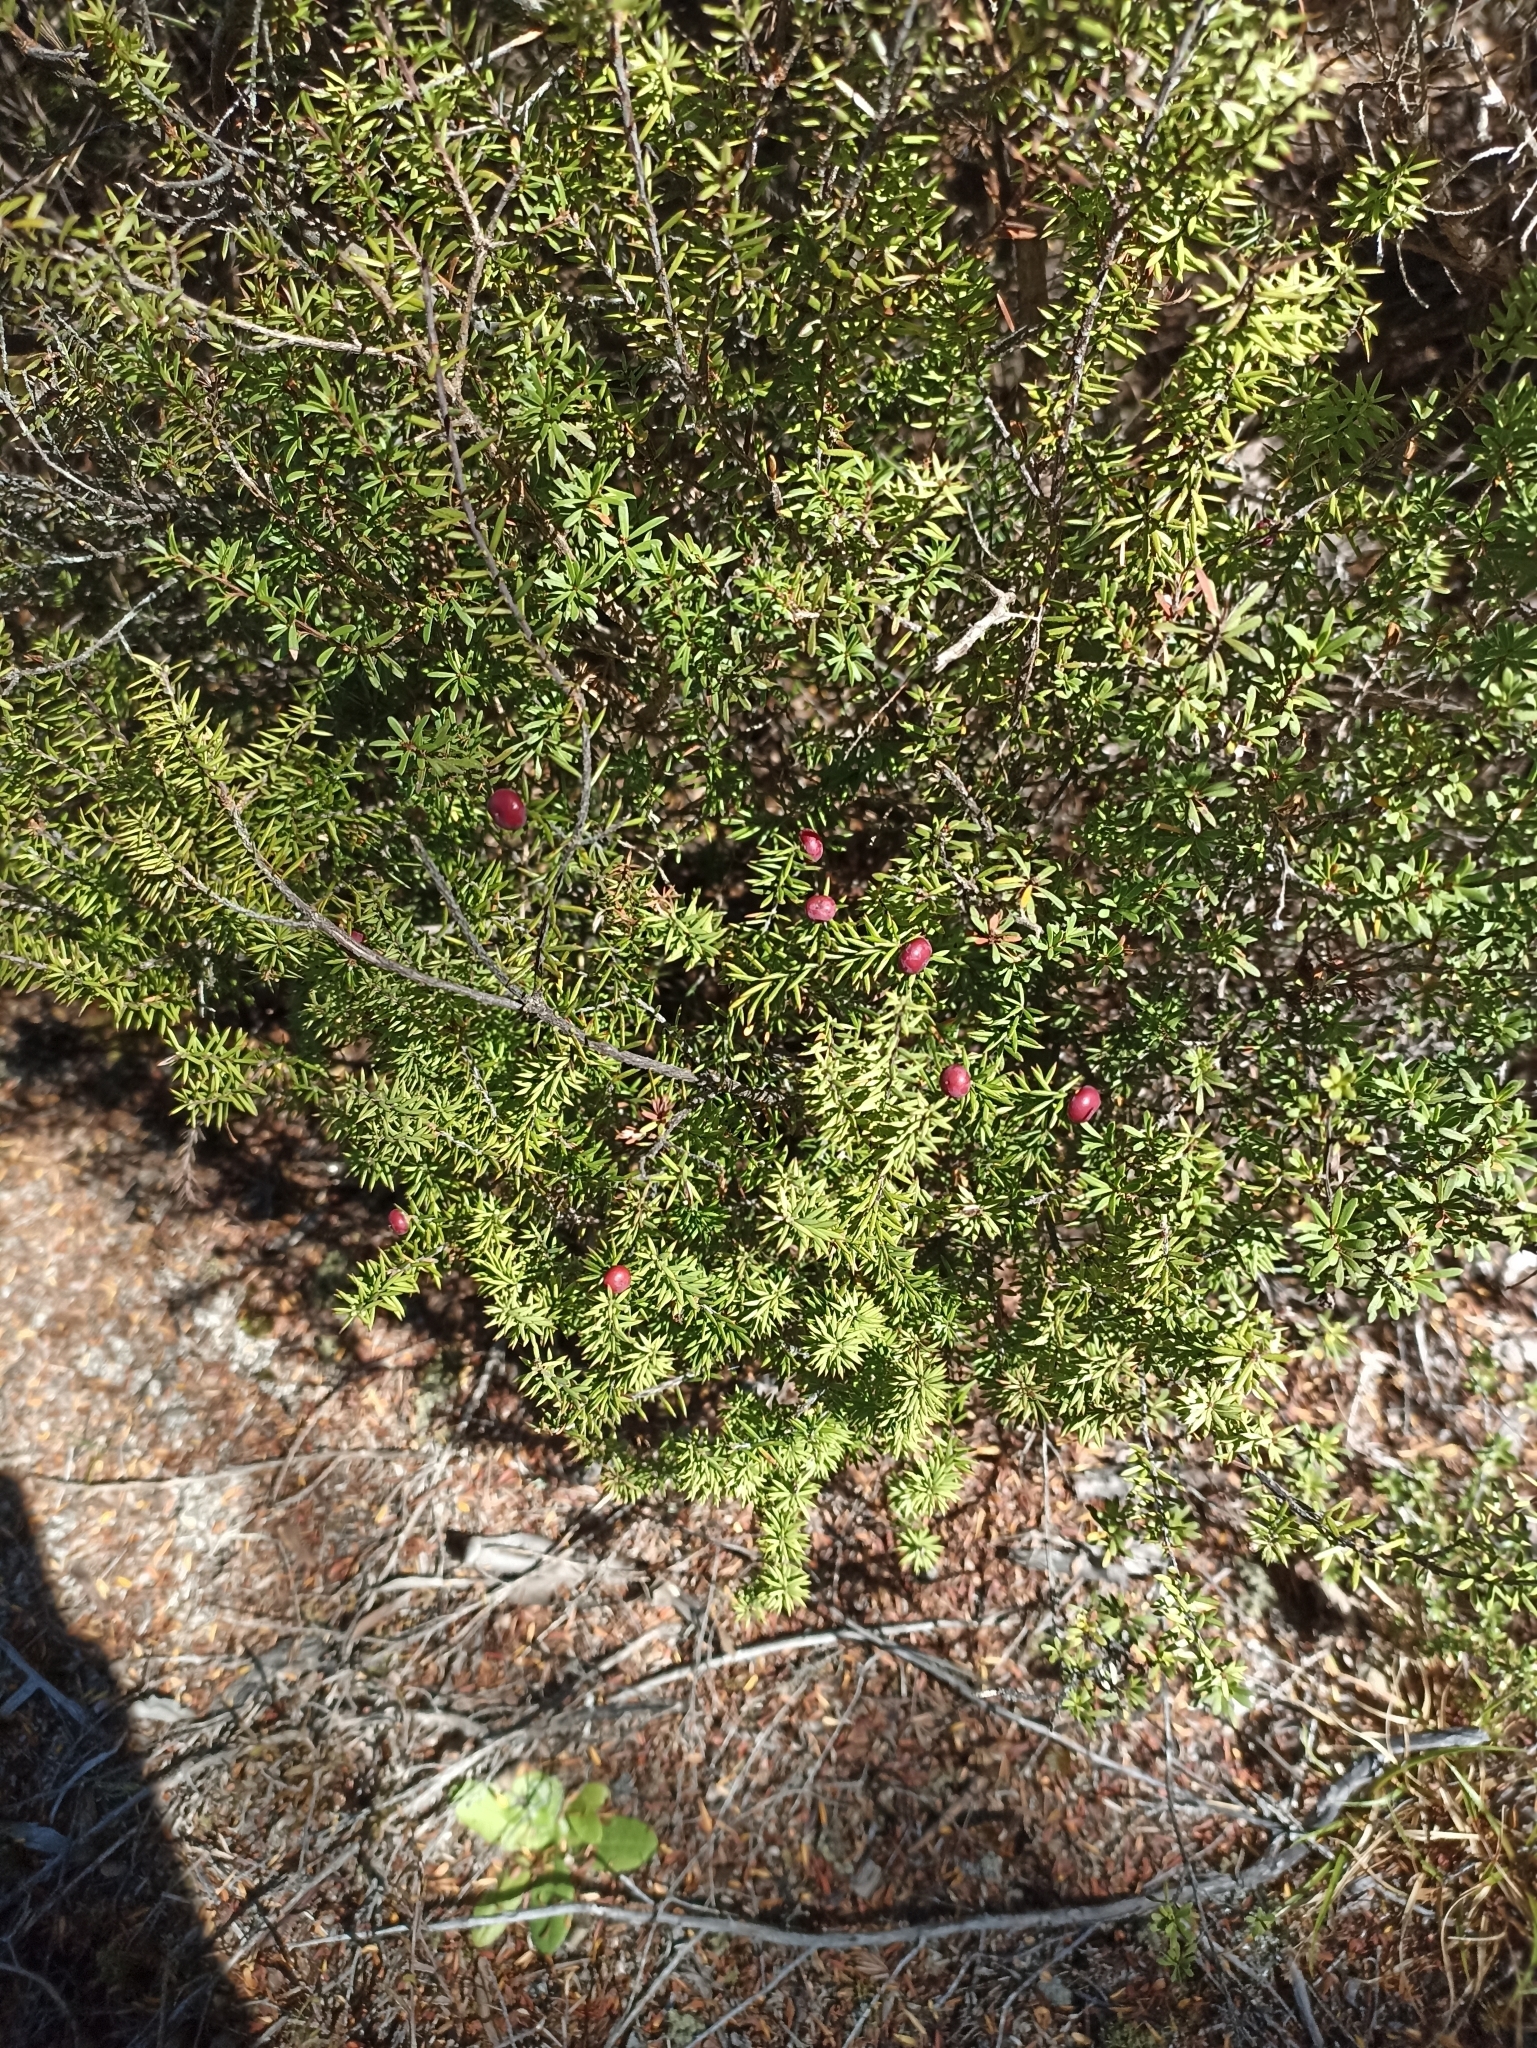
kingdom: Plantae
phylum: Tracheophyta
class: Magnoliopsida
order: Ericales
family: Ericaceae
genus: Leptecophylla
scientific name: Leptecophylla juniperina
